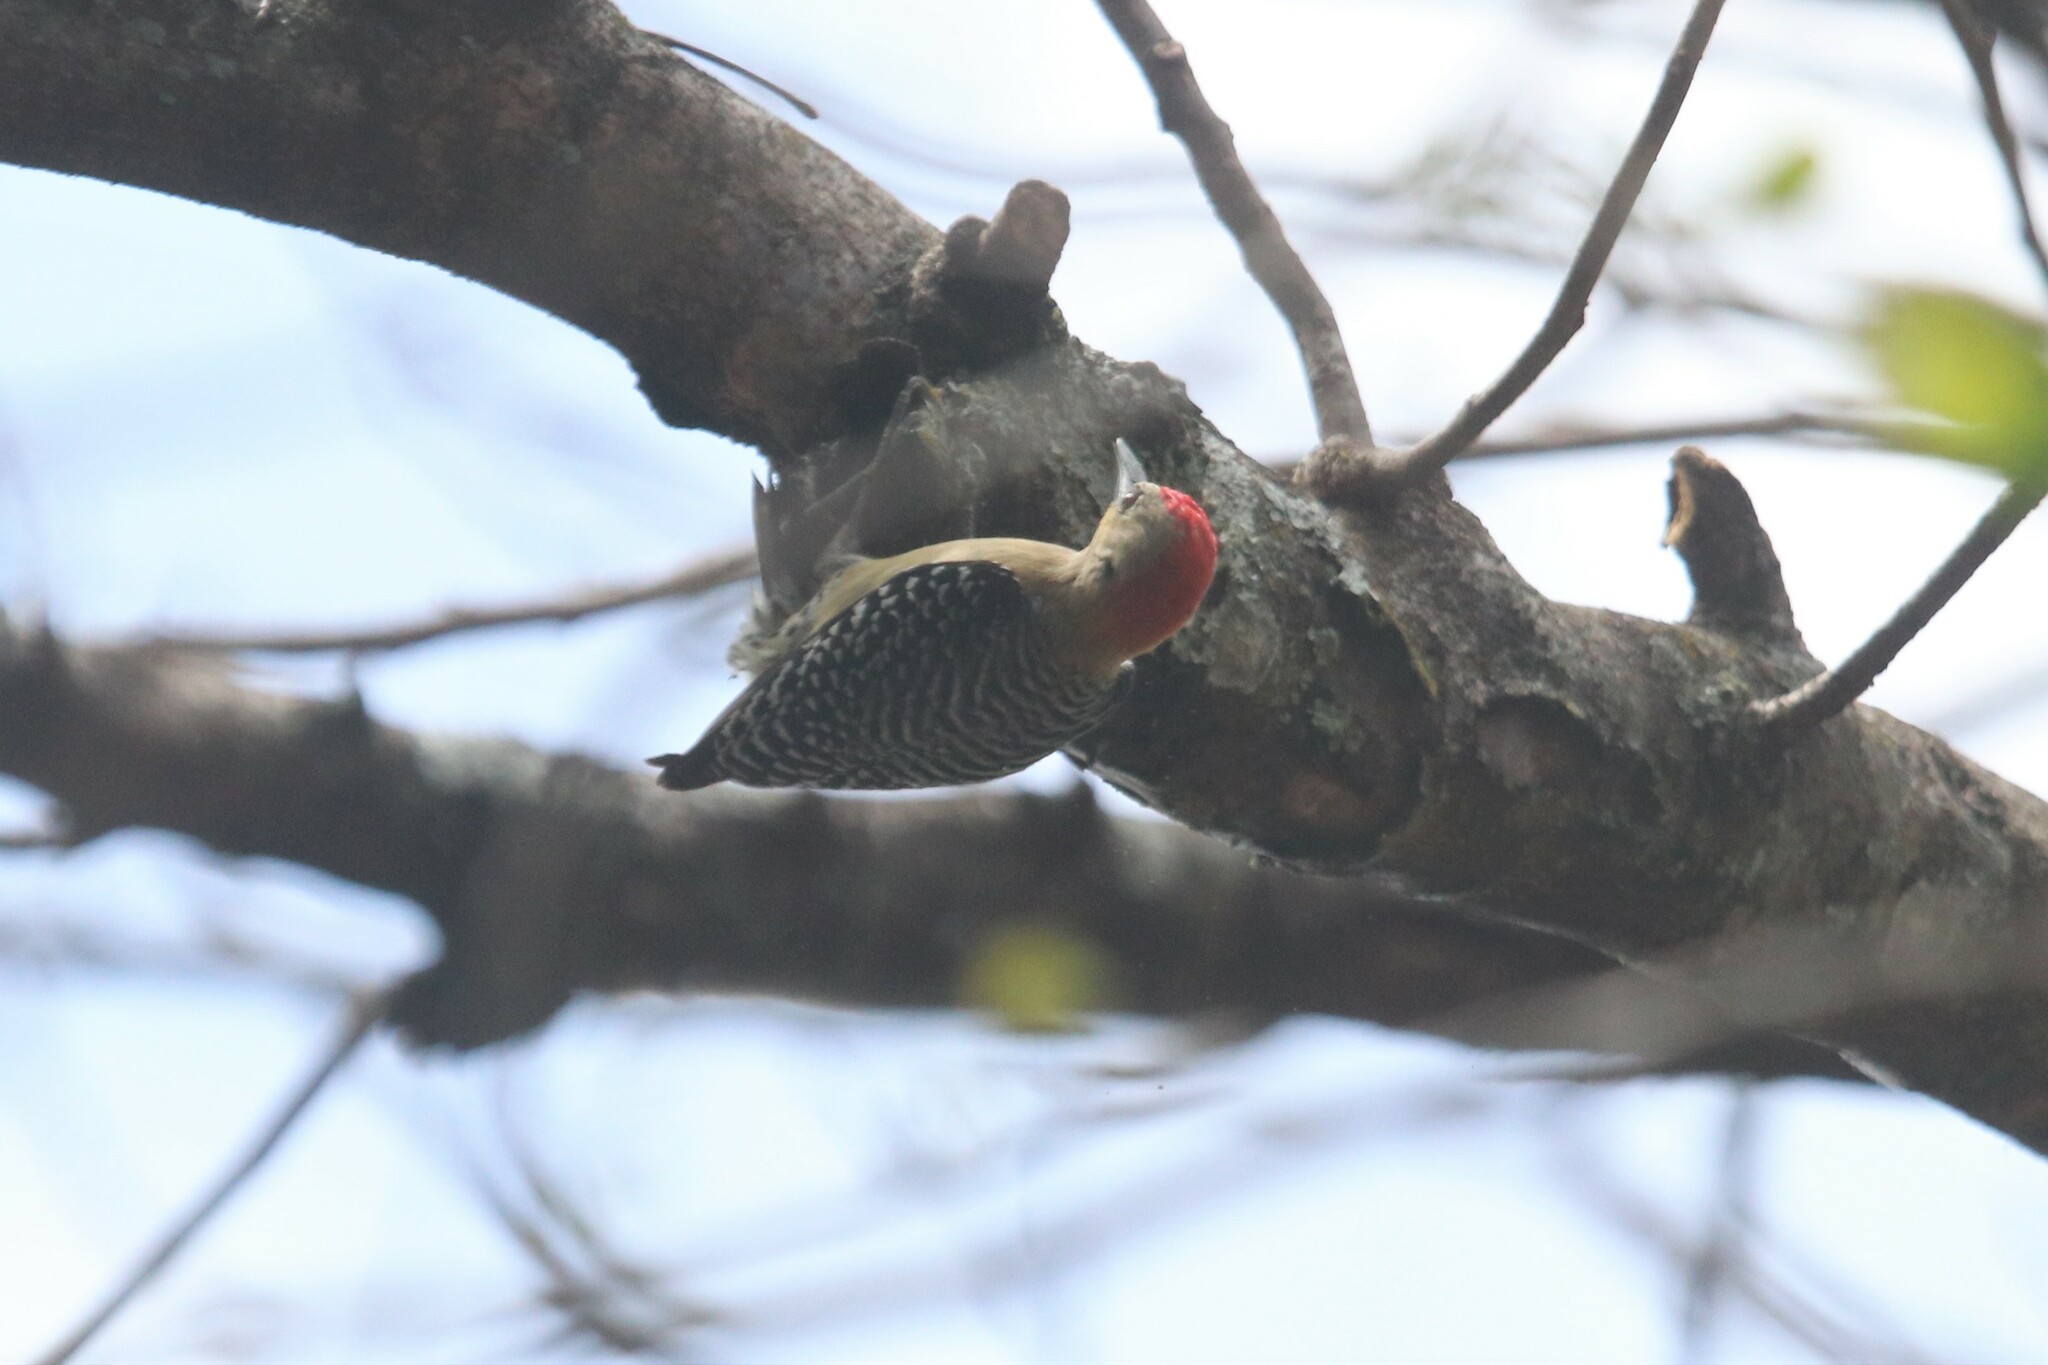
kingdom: Animalia
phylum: Chordata
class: Aves
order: Piciformes
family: Picidae
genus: Melanerpes
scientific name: Melanerpes rubricapillus
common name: Red-crowned woodpecker
